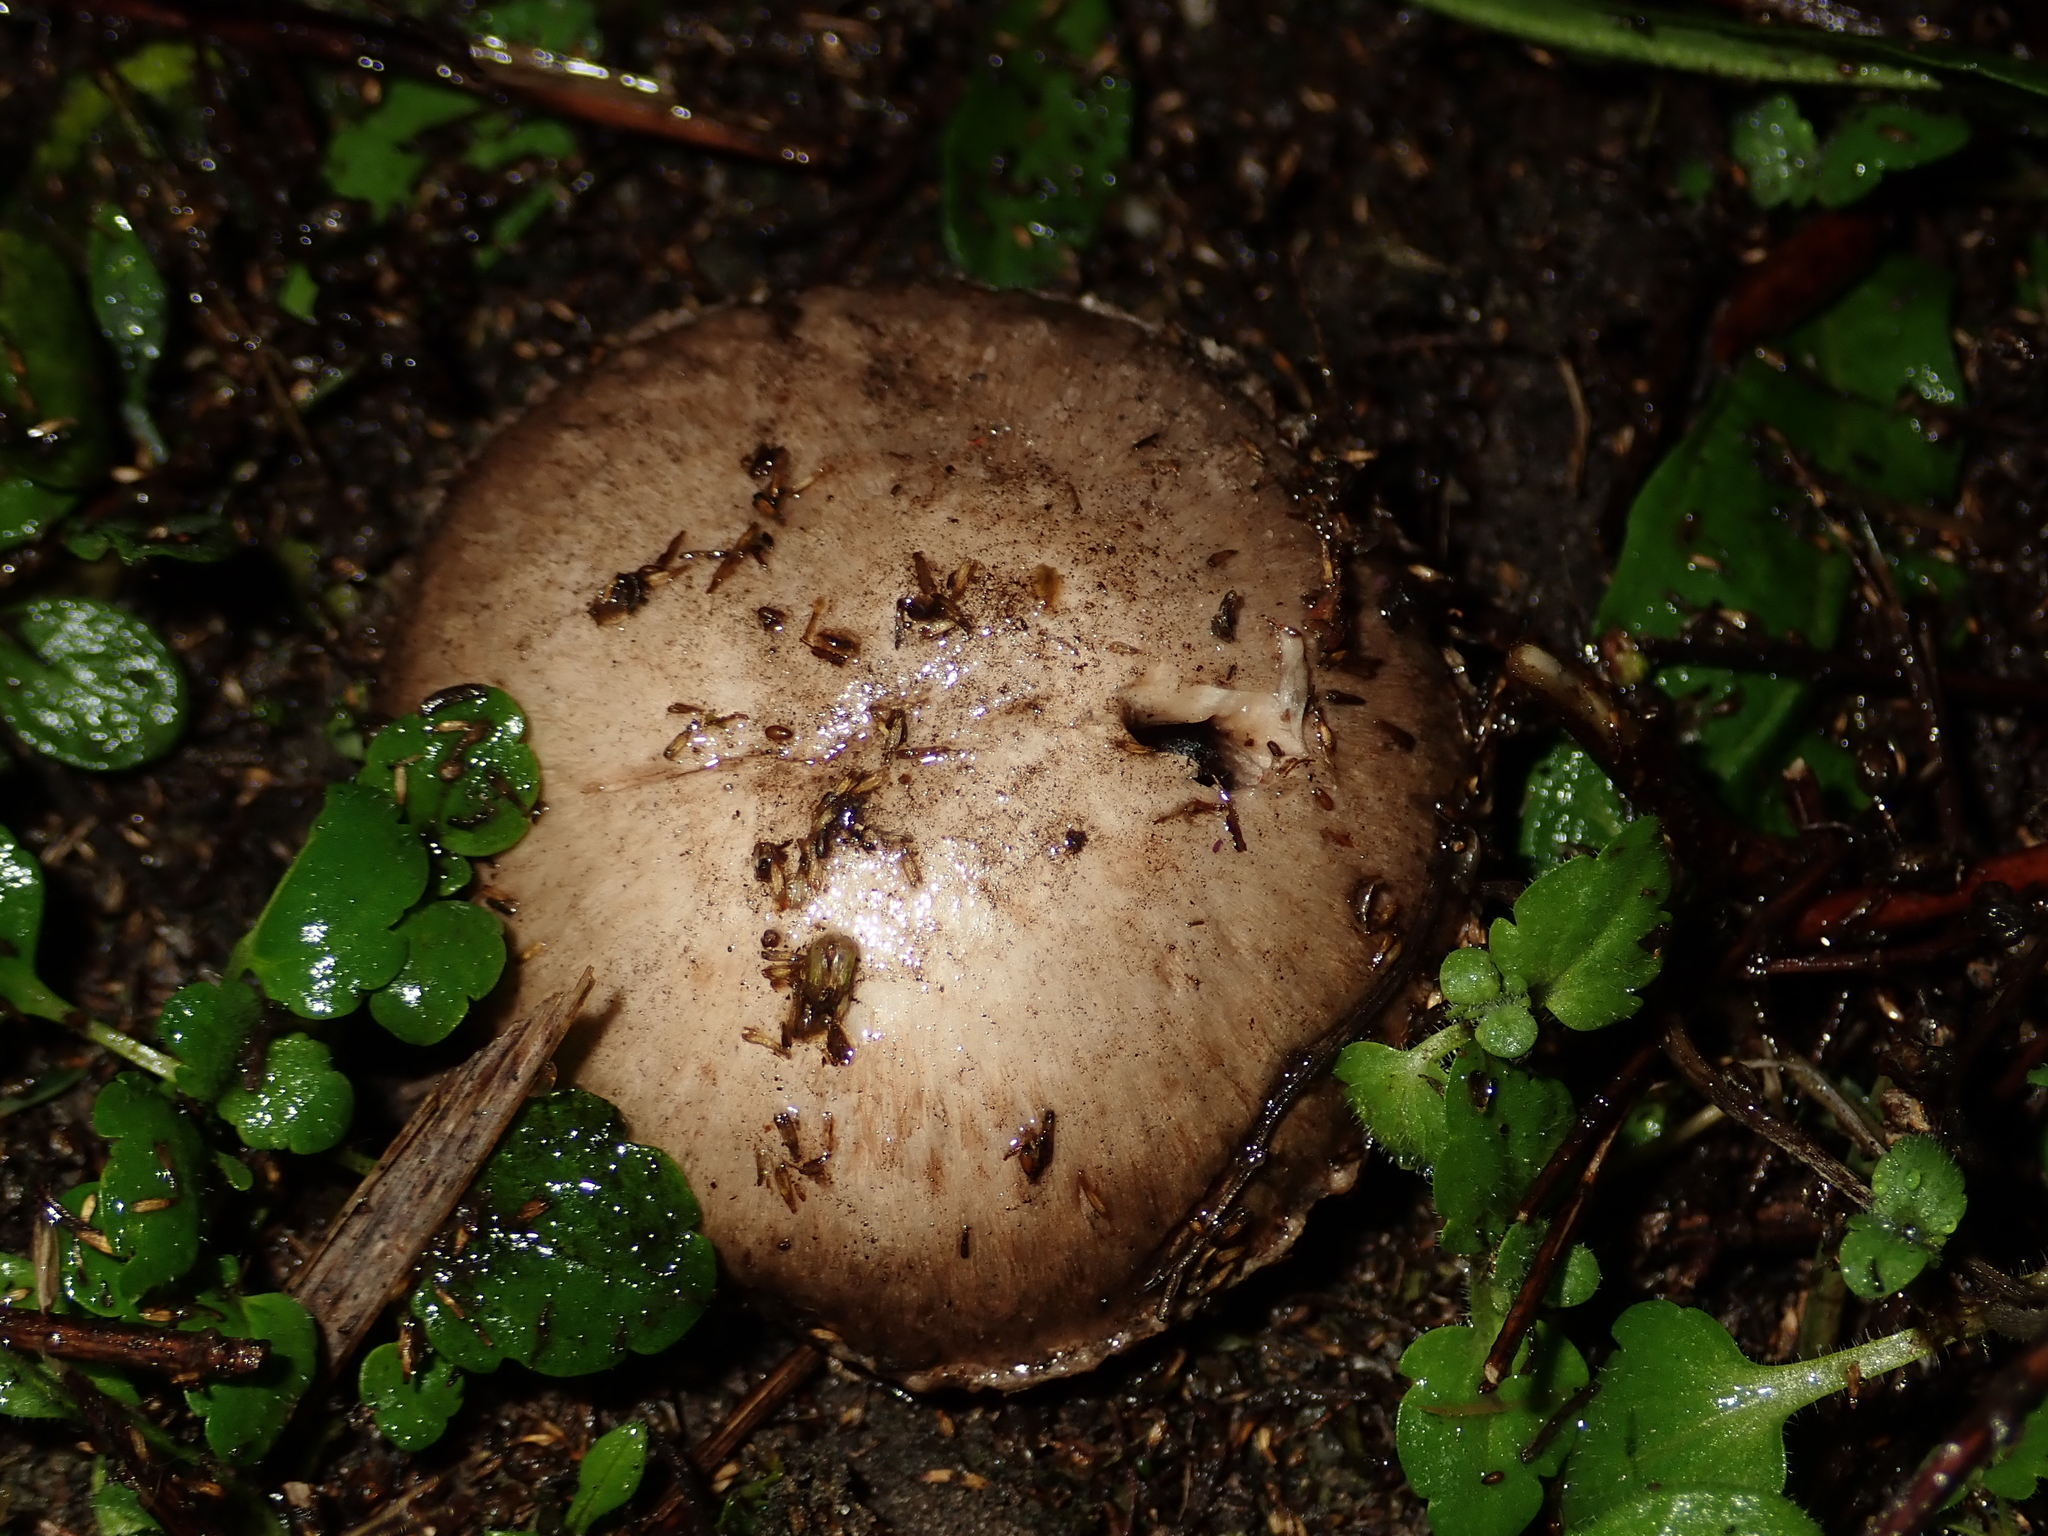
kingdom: Fungi
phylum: Basidiomycota
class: Agaricomycetes
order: Agaricales
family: Agaricaceae
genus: Agaricus
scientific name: Agaricus bitorquis
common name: Pavement mushroom
